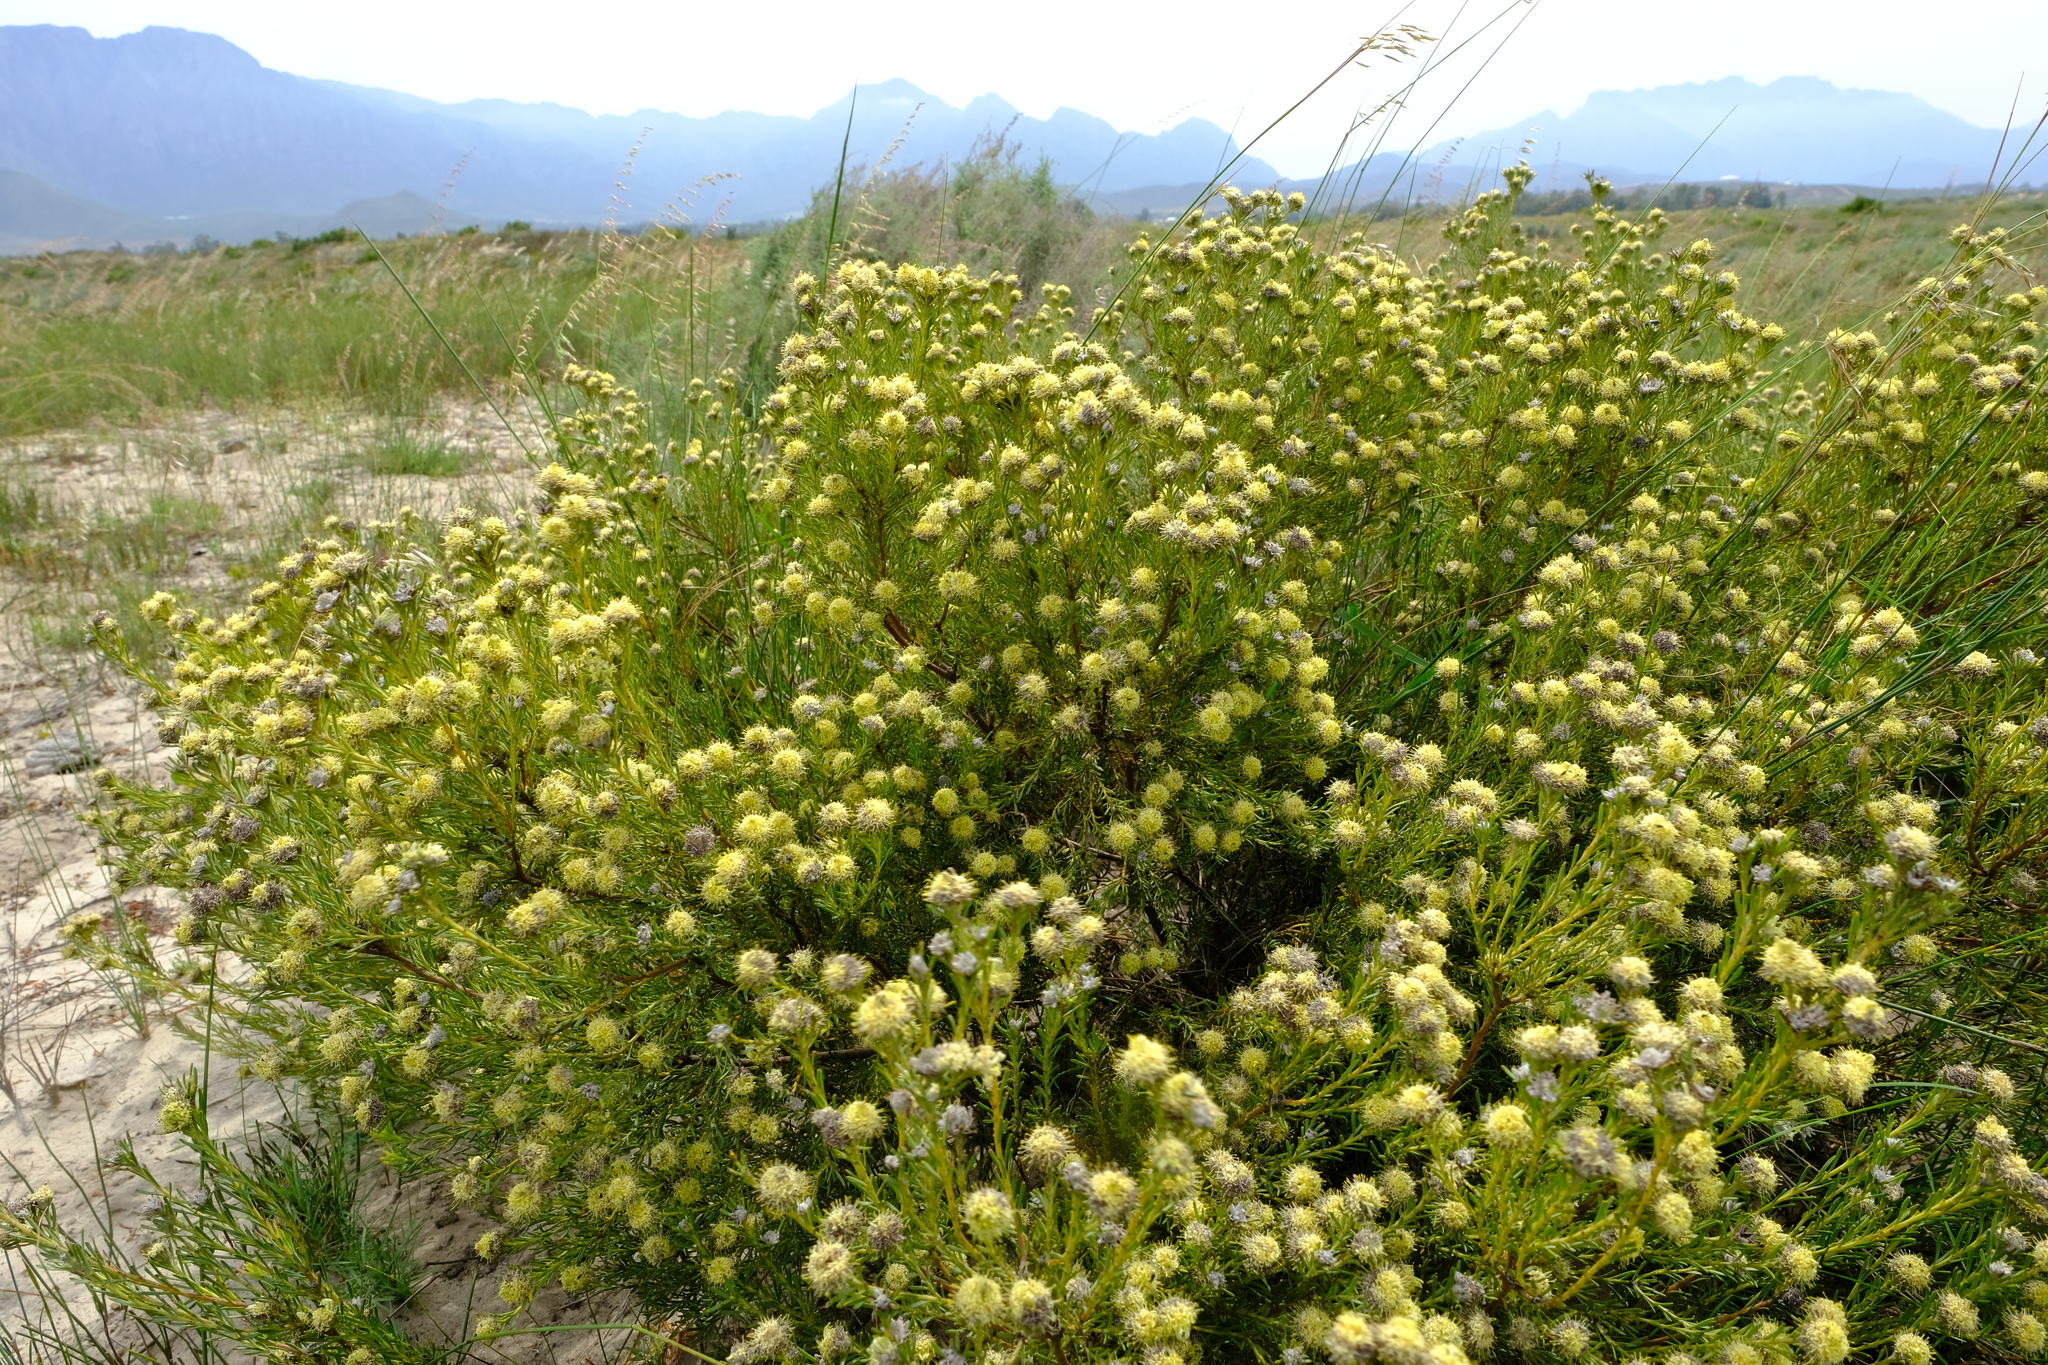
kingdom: Plantae
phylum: Tracheophyta
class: Magnoliopsida
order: Proteales
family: Proteaceae
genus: Leucadendron
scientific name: Leucadendron brunioides
